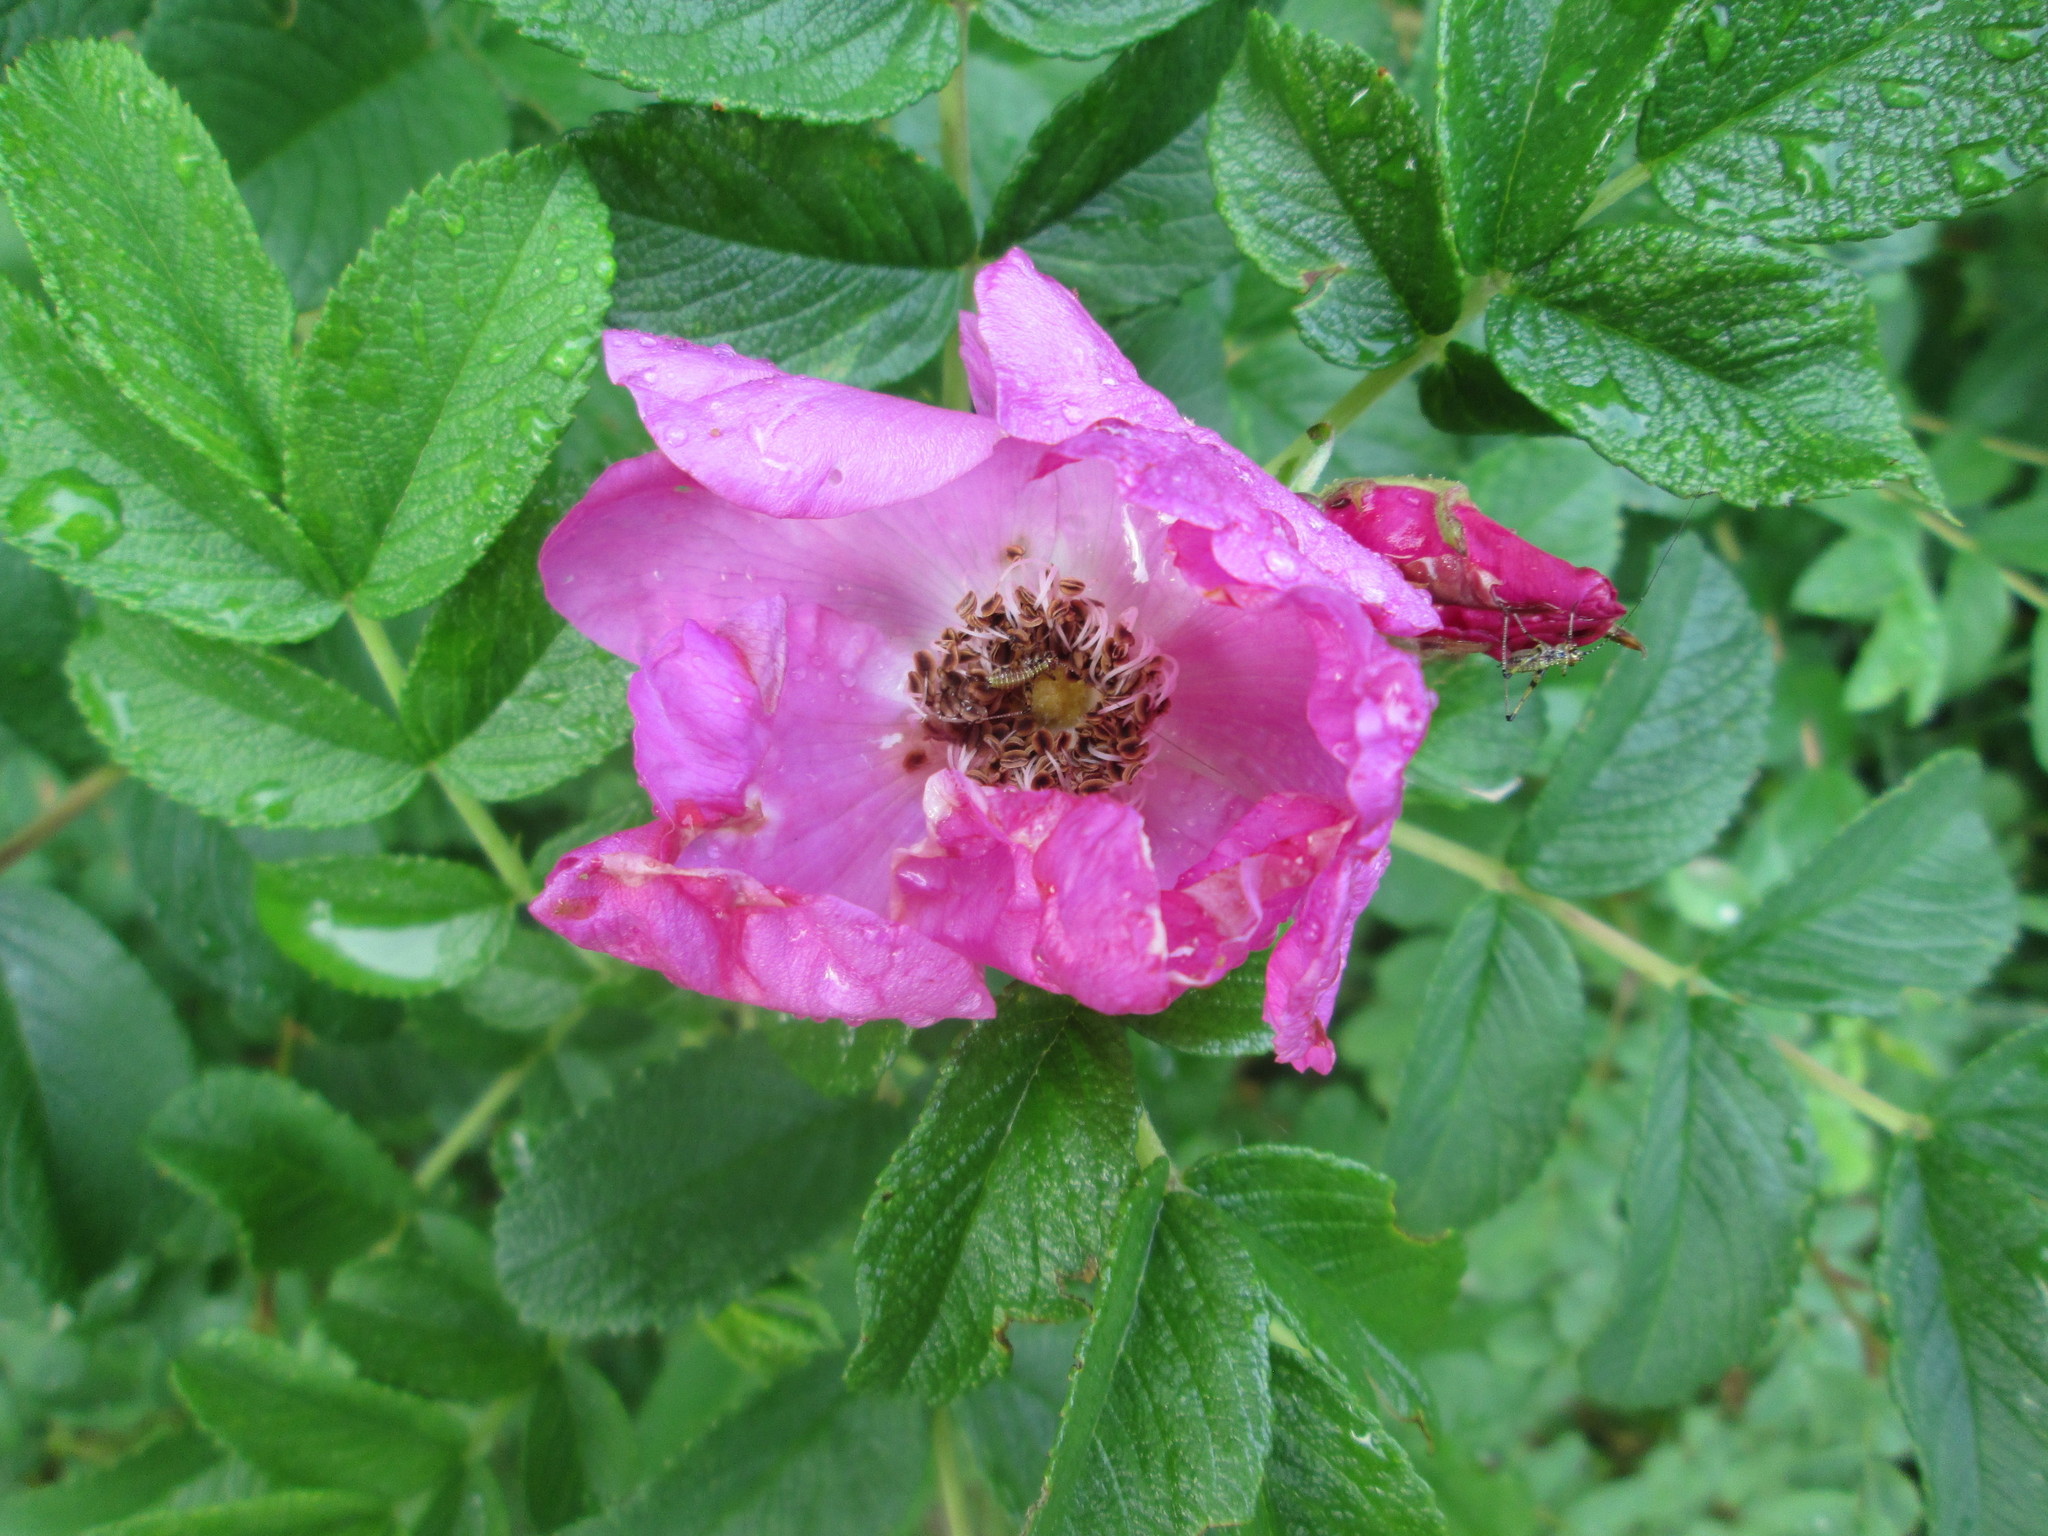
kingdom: Plantae
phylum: Tracheophyta
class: Magnoliopsida
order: Rosales
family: Rosaceae
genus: Rosa
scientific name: Rosa rugosa
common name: Japanese rose
